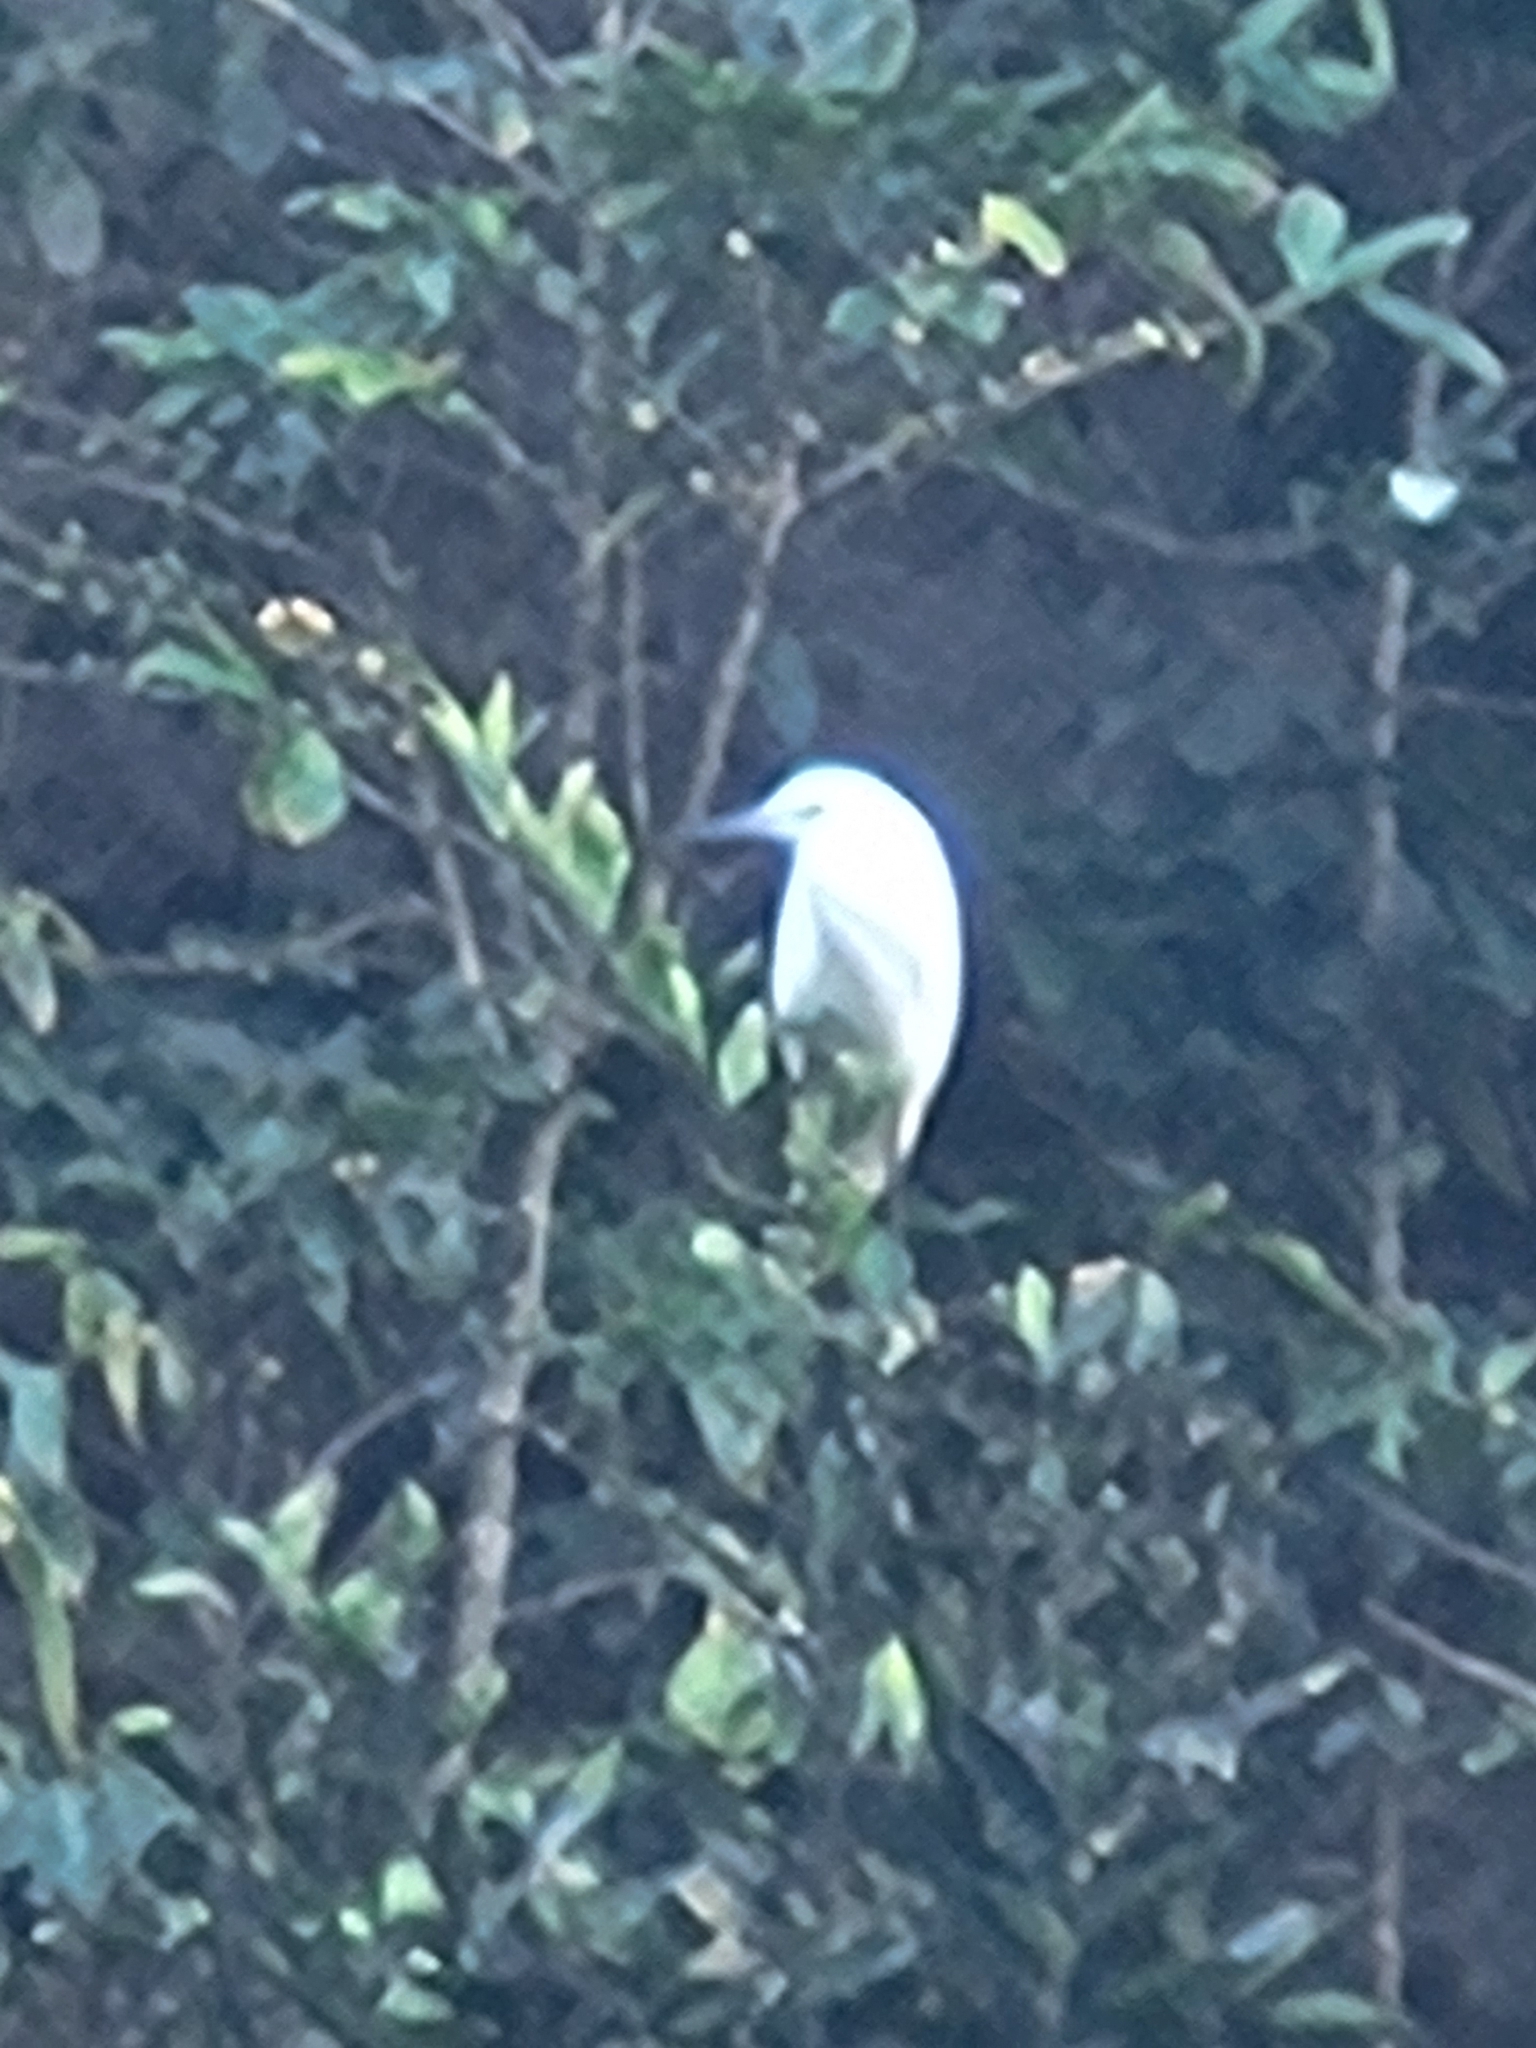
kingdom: Animalia
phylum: Chordata
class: Aves
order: Pelecaniformes
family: Ardeidae
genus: Egretta
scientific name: Egretta garzetta
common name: Little egret
